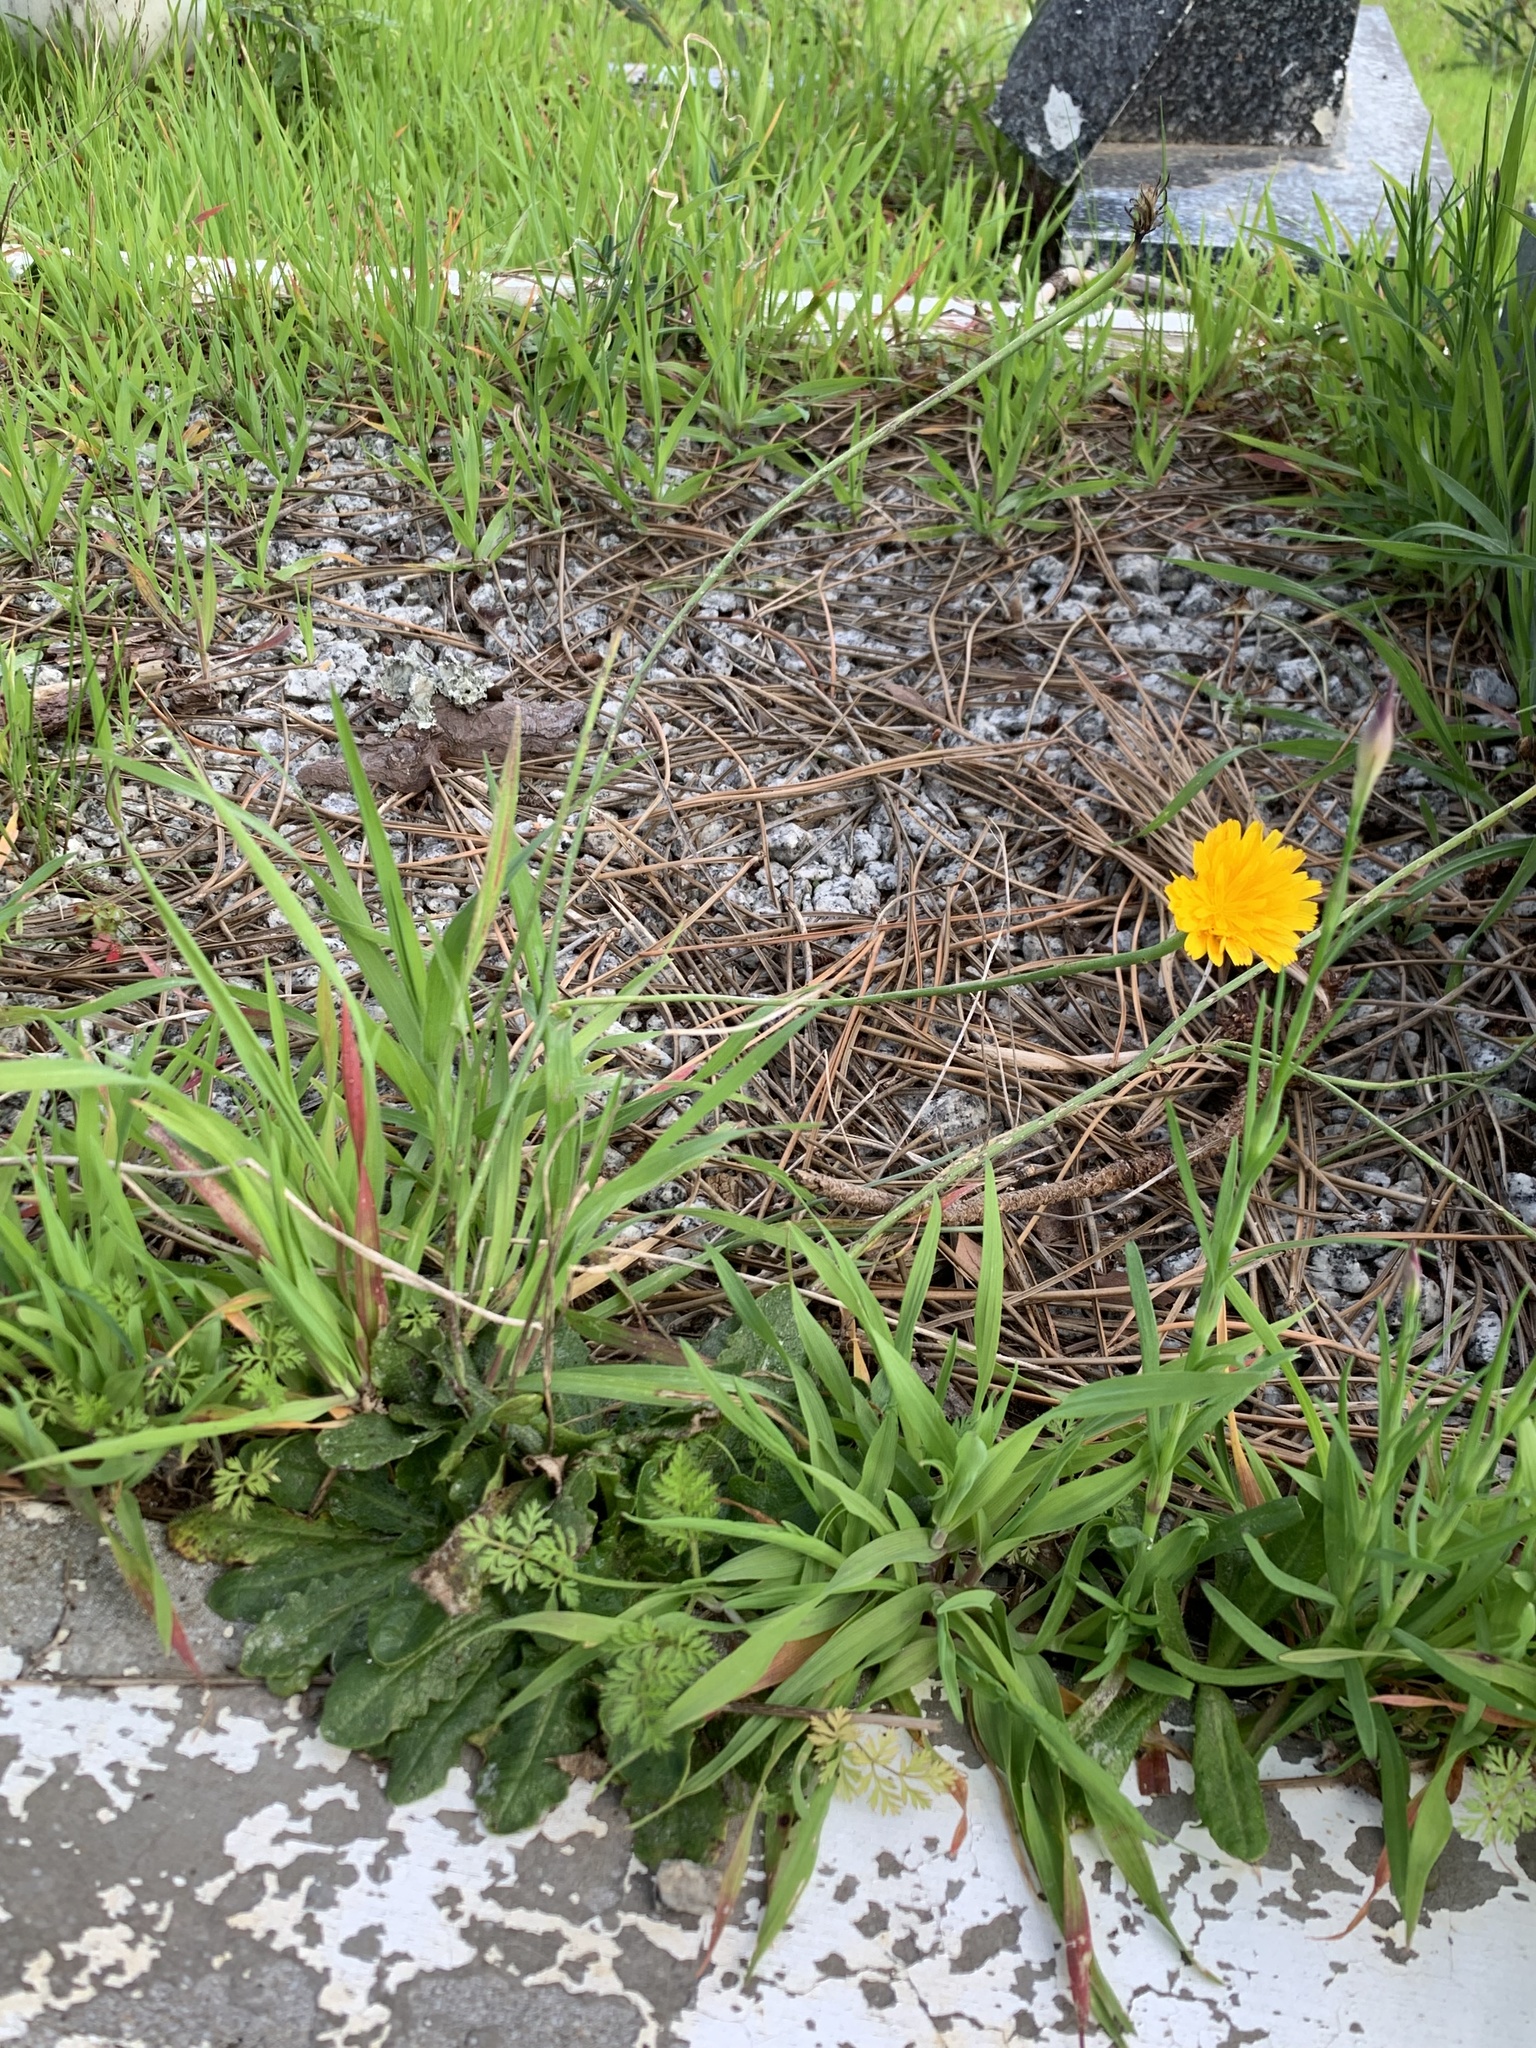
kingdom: Plantae
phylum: Tracheophyta
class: Magnoliopsida
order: Asterales
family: Asteraceae
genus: Hypochaeris
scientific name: Hypochaeris radicata
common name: Flatweed
